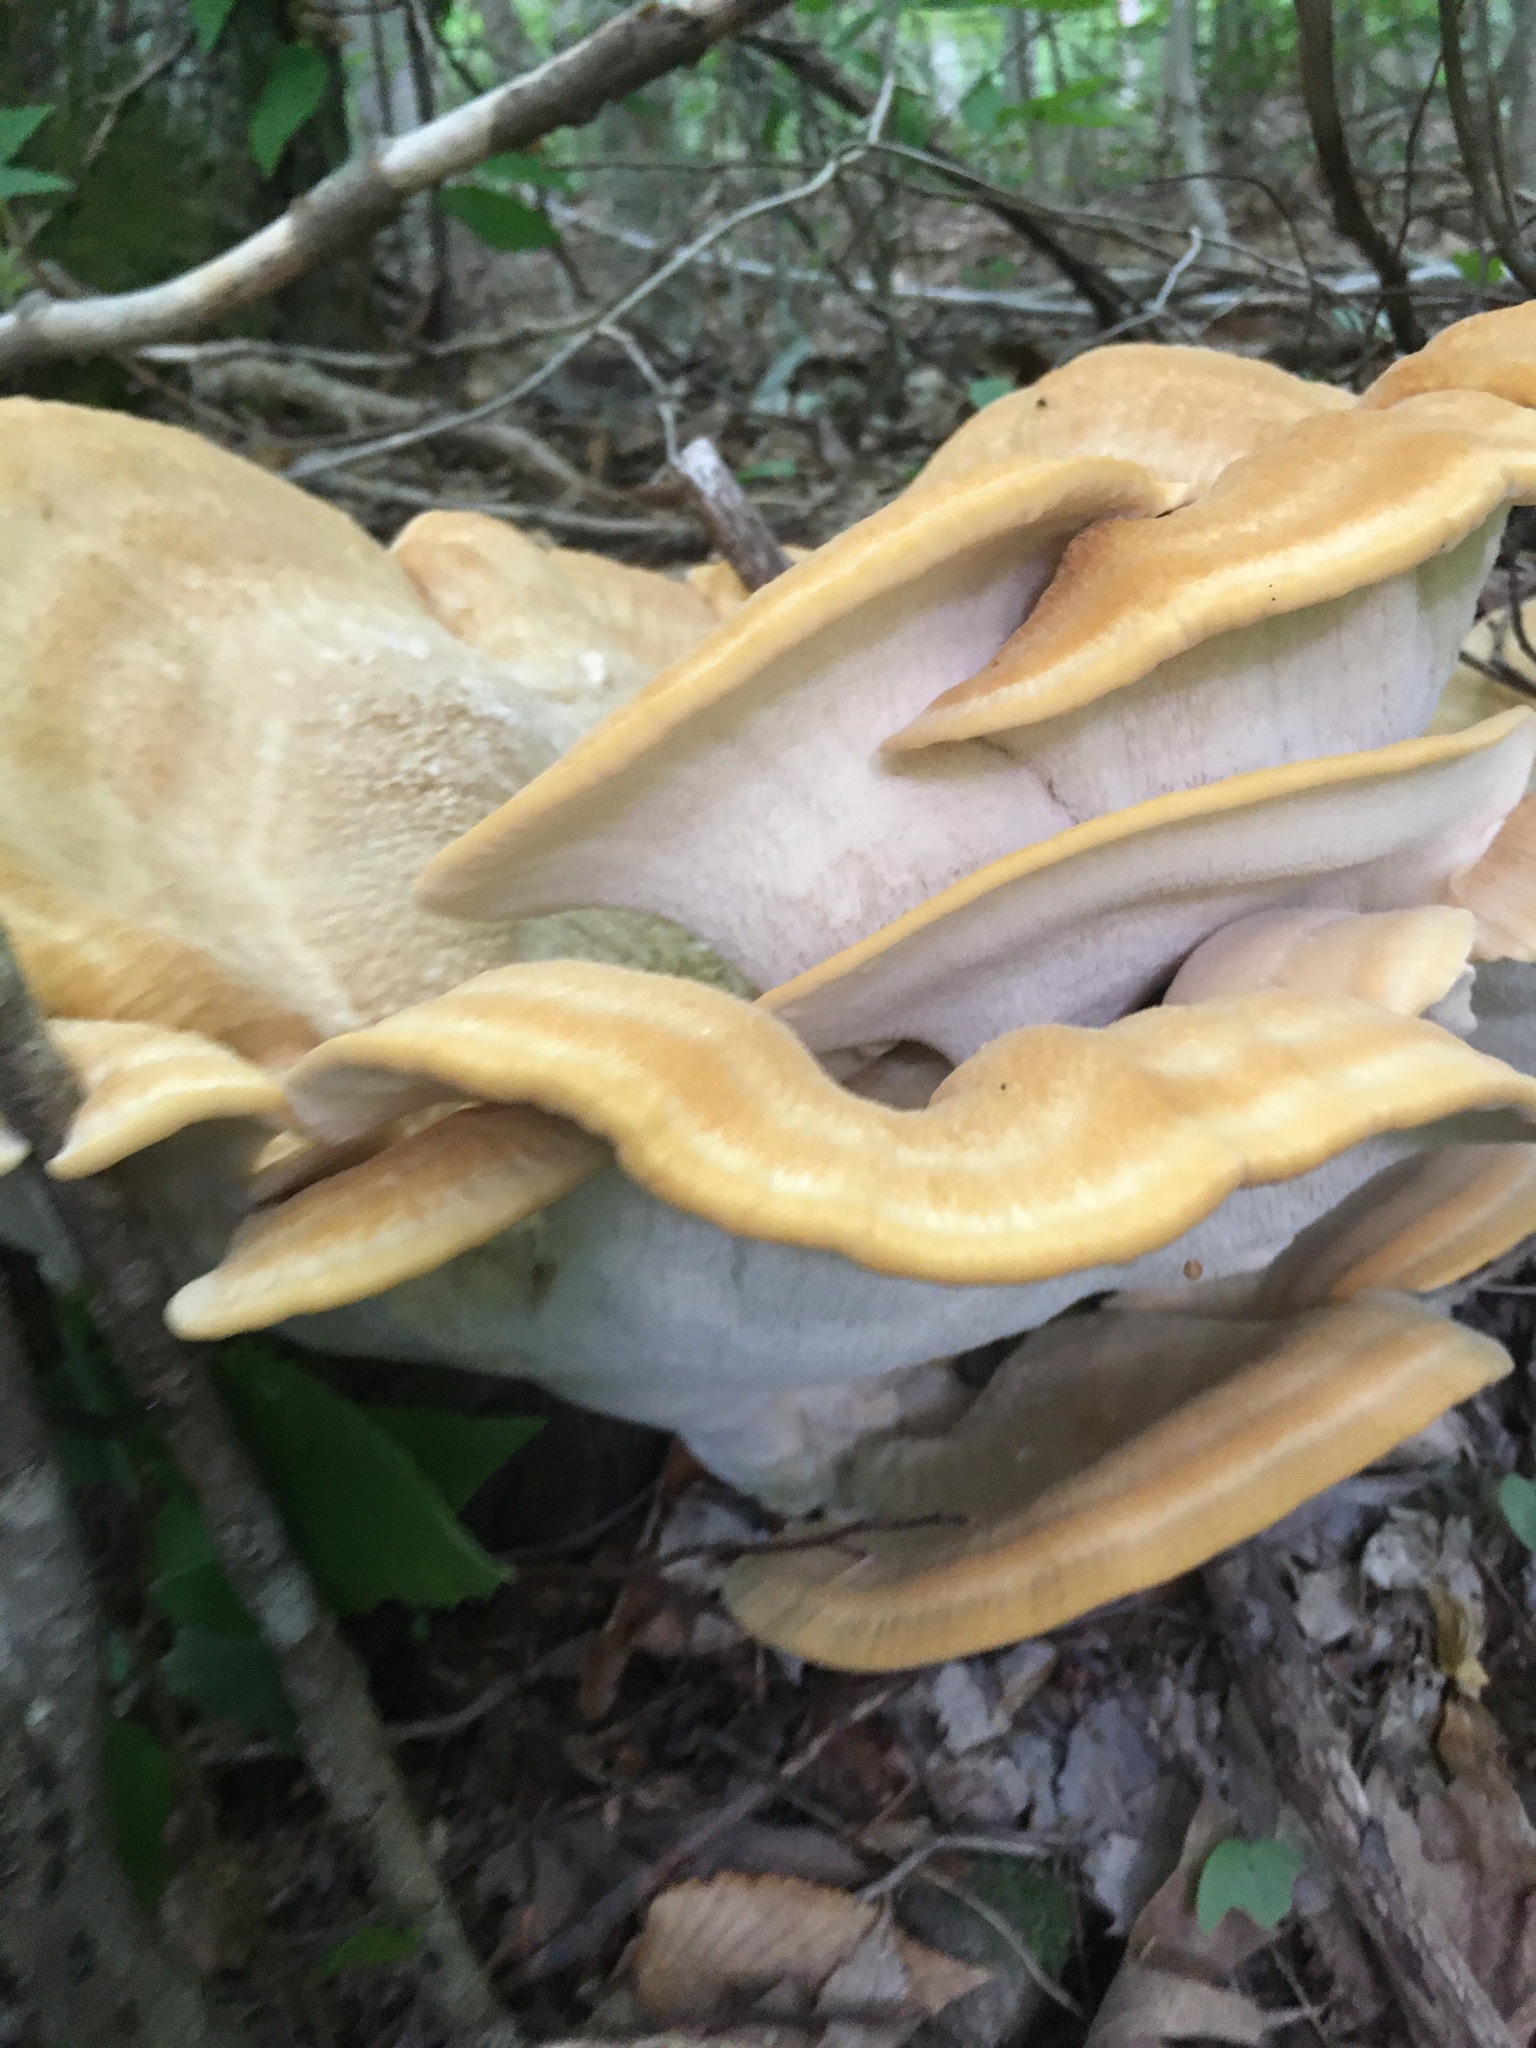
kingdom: Fungi
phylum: Basidiomycota
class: Agaricomycetes
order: Russulales
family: Bondarzewiaceae
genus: Bondarzewia
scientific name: Bondarzewia berkeleyi
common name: Berkeley's polypore
